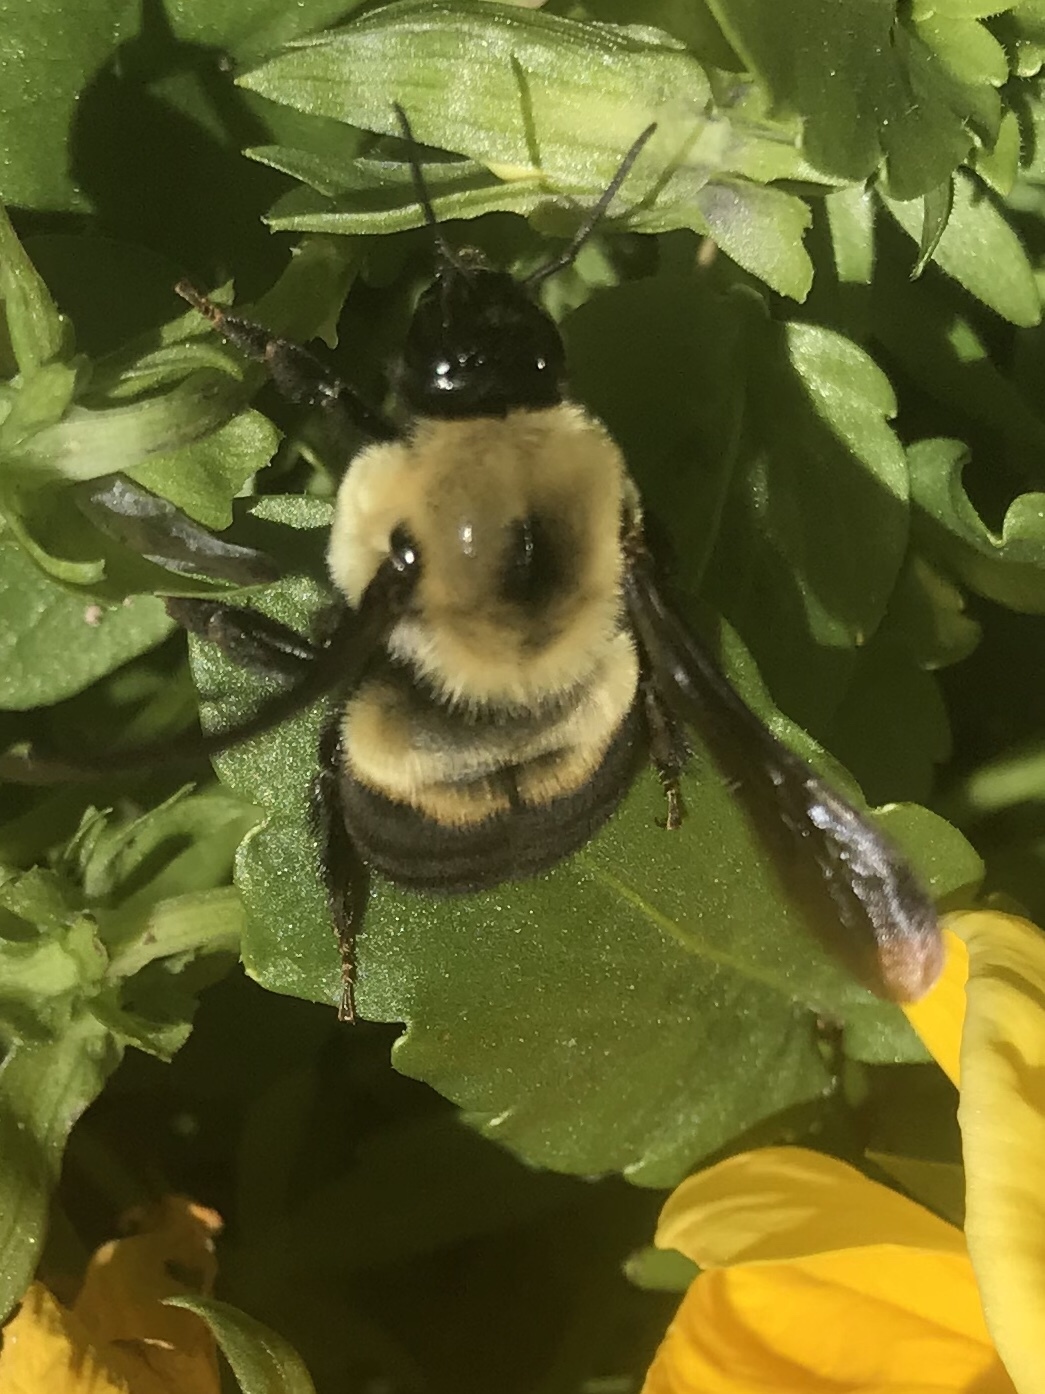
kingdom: Animalia
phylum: Arthropoda
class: Insecta
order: Hymenoptera
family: Apidae
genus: Bombus
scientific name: Bombus griseocollis
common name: Brown-belted bumble bee
